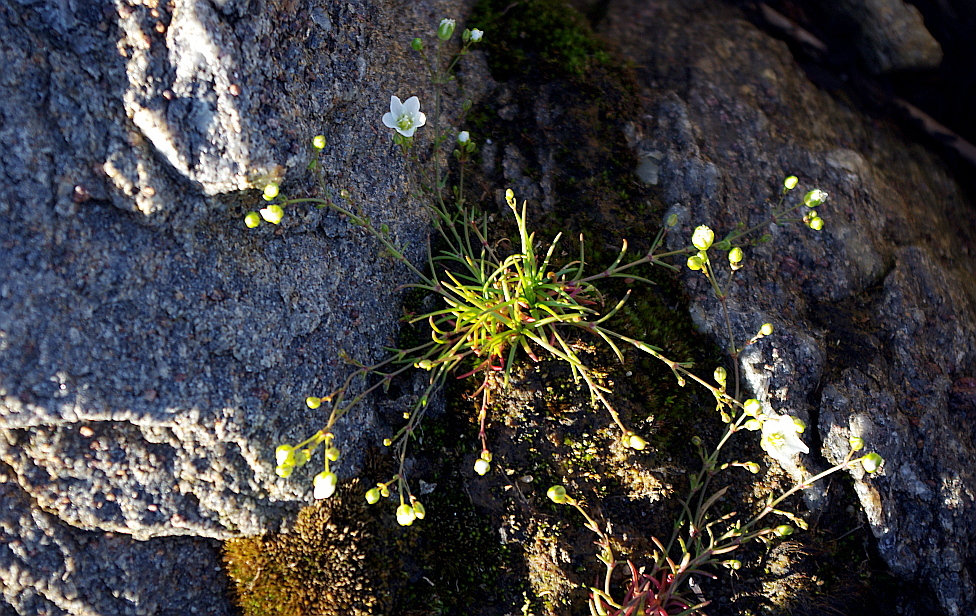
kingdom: Plantae
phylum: Tracheophyta
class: Magnoliopsida
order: Caryophyllales
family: Caryophyllaceae
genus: Sagina
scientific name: Sagina nodosa
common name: Knotted pearlwort
